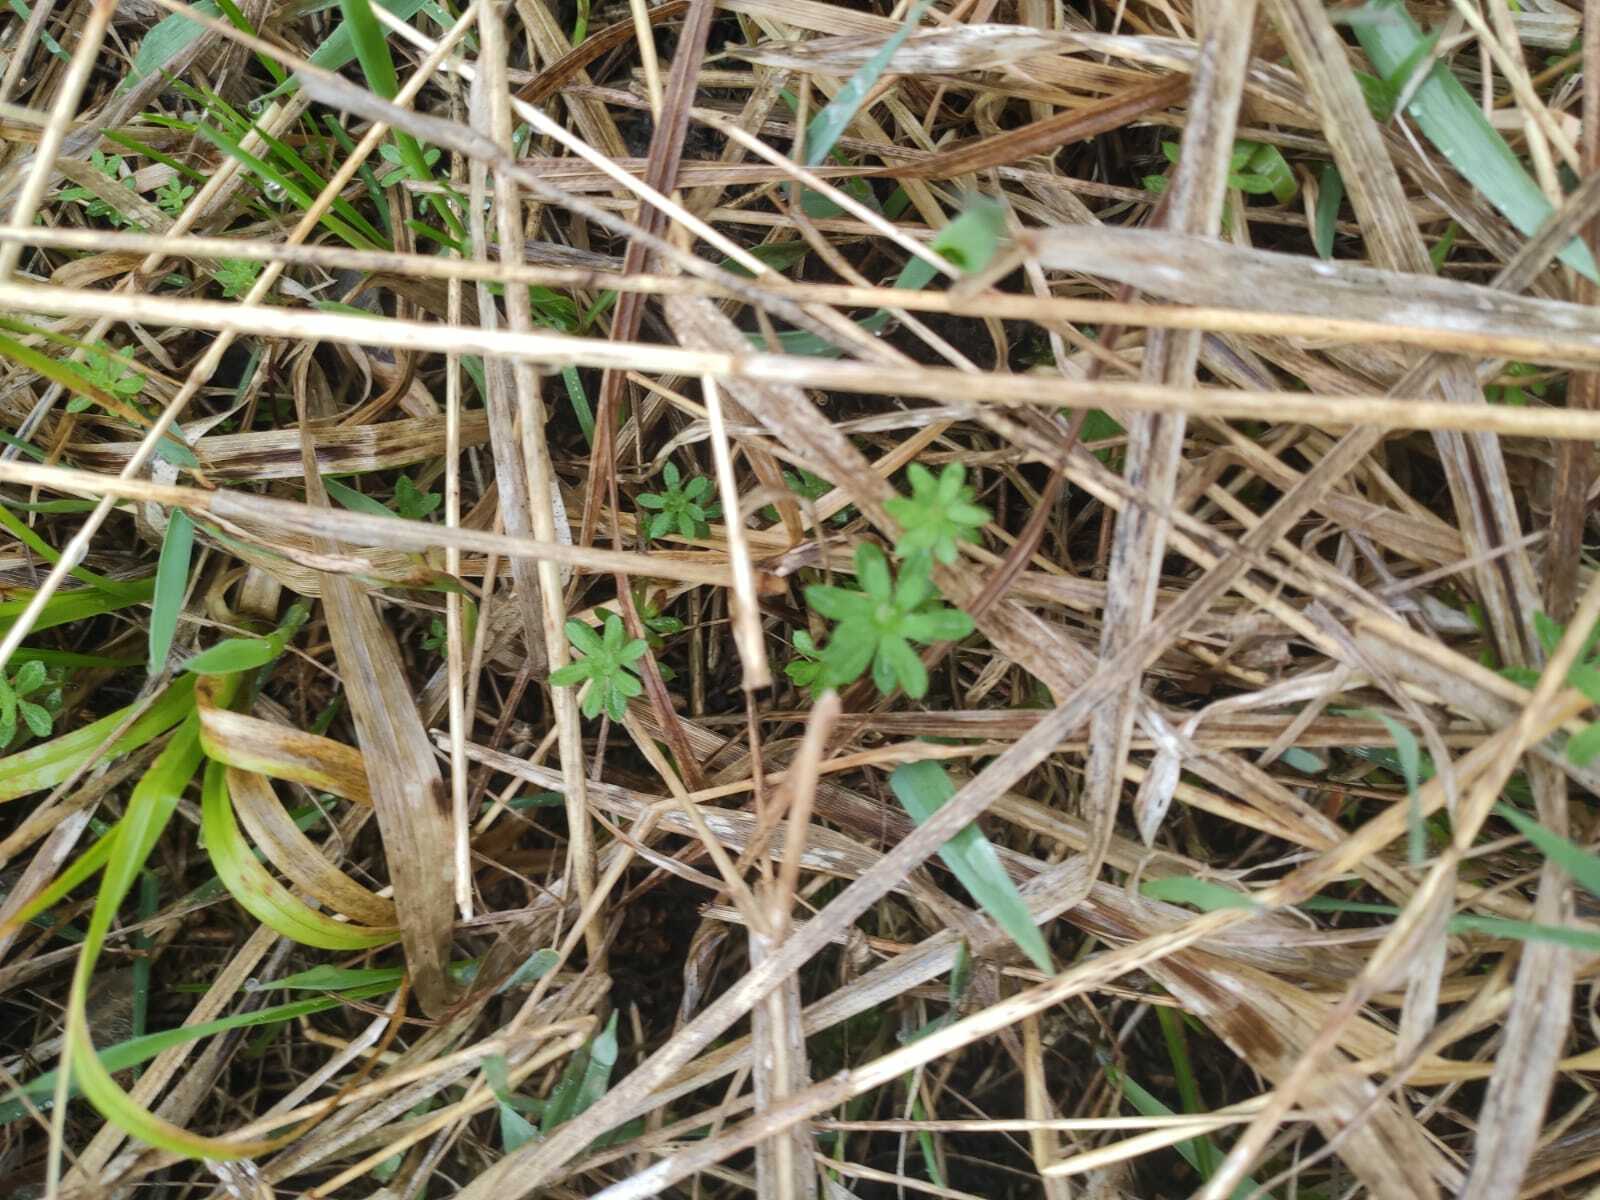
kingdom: Plantae
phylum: Tracheophyta
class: Magnoliopsida
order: Gentianales
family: Rubiaceae
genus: Galium
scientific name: Galium mollugo
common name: Hedge bedstraw
